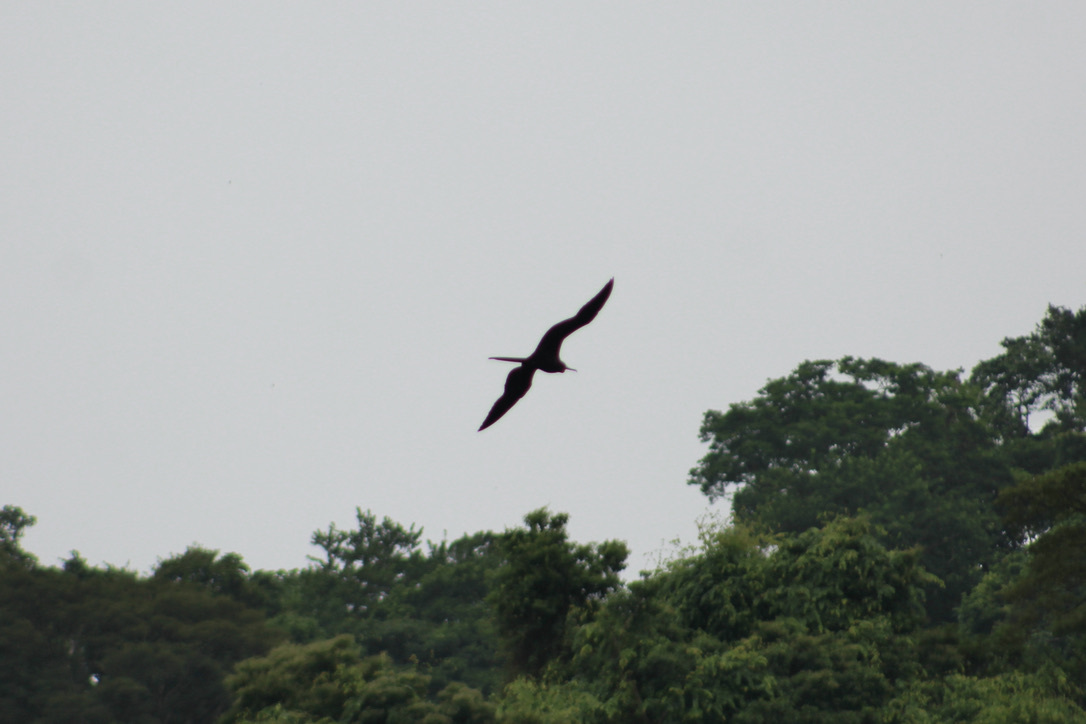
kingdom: Animalia
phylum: Chordata
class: Aves
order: Suliformes
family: Fregatidae
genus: Fregata
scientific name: Fregata magnificens
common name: Magnificent frigatebird
